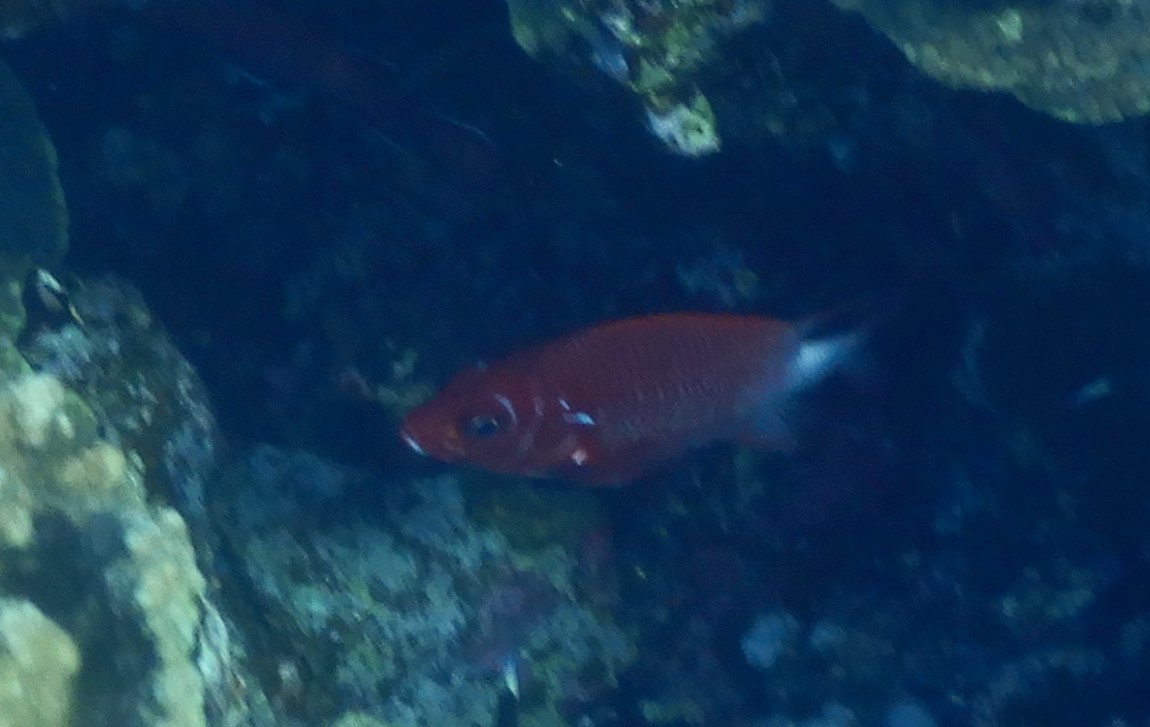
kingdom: Animalia
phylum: Chordata
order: Beryciformes
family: Holocentridae
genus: Sargocentron
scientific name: Sargocentron caudimaculatum
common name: Fanfin soldier
